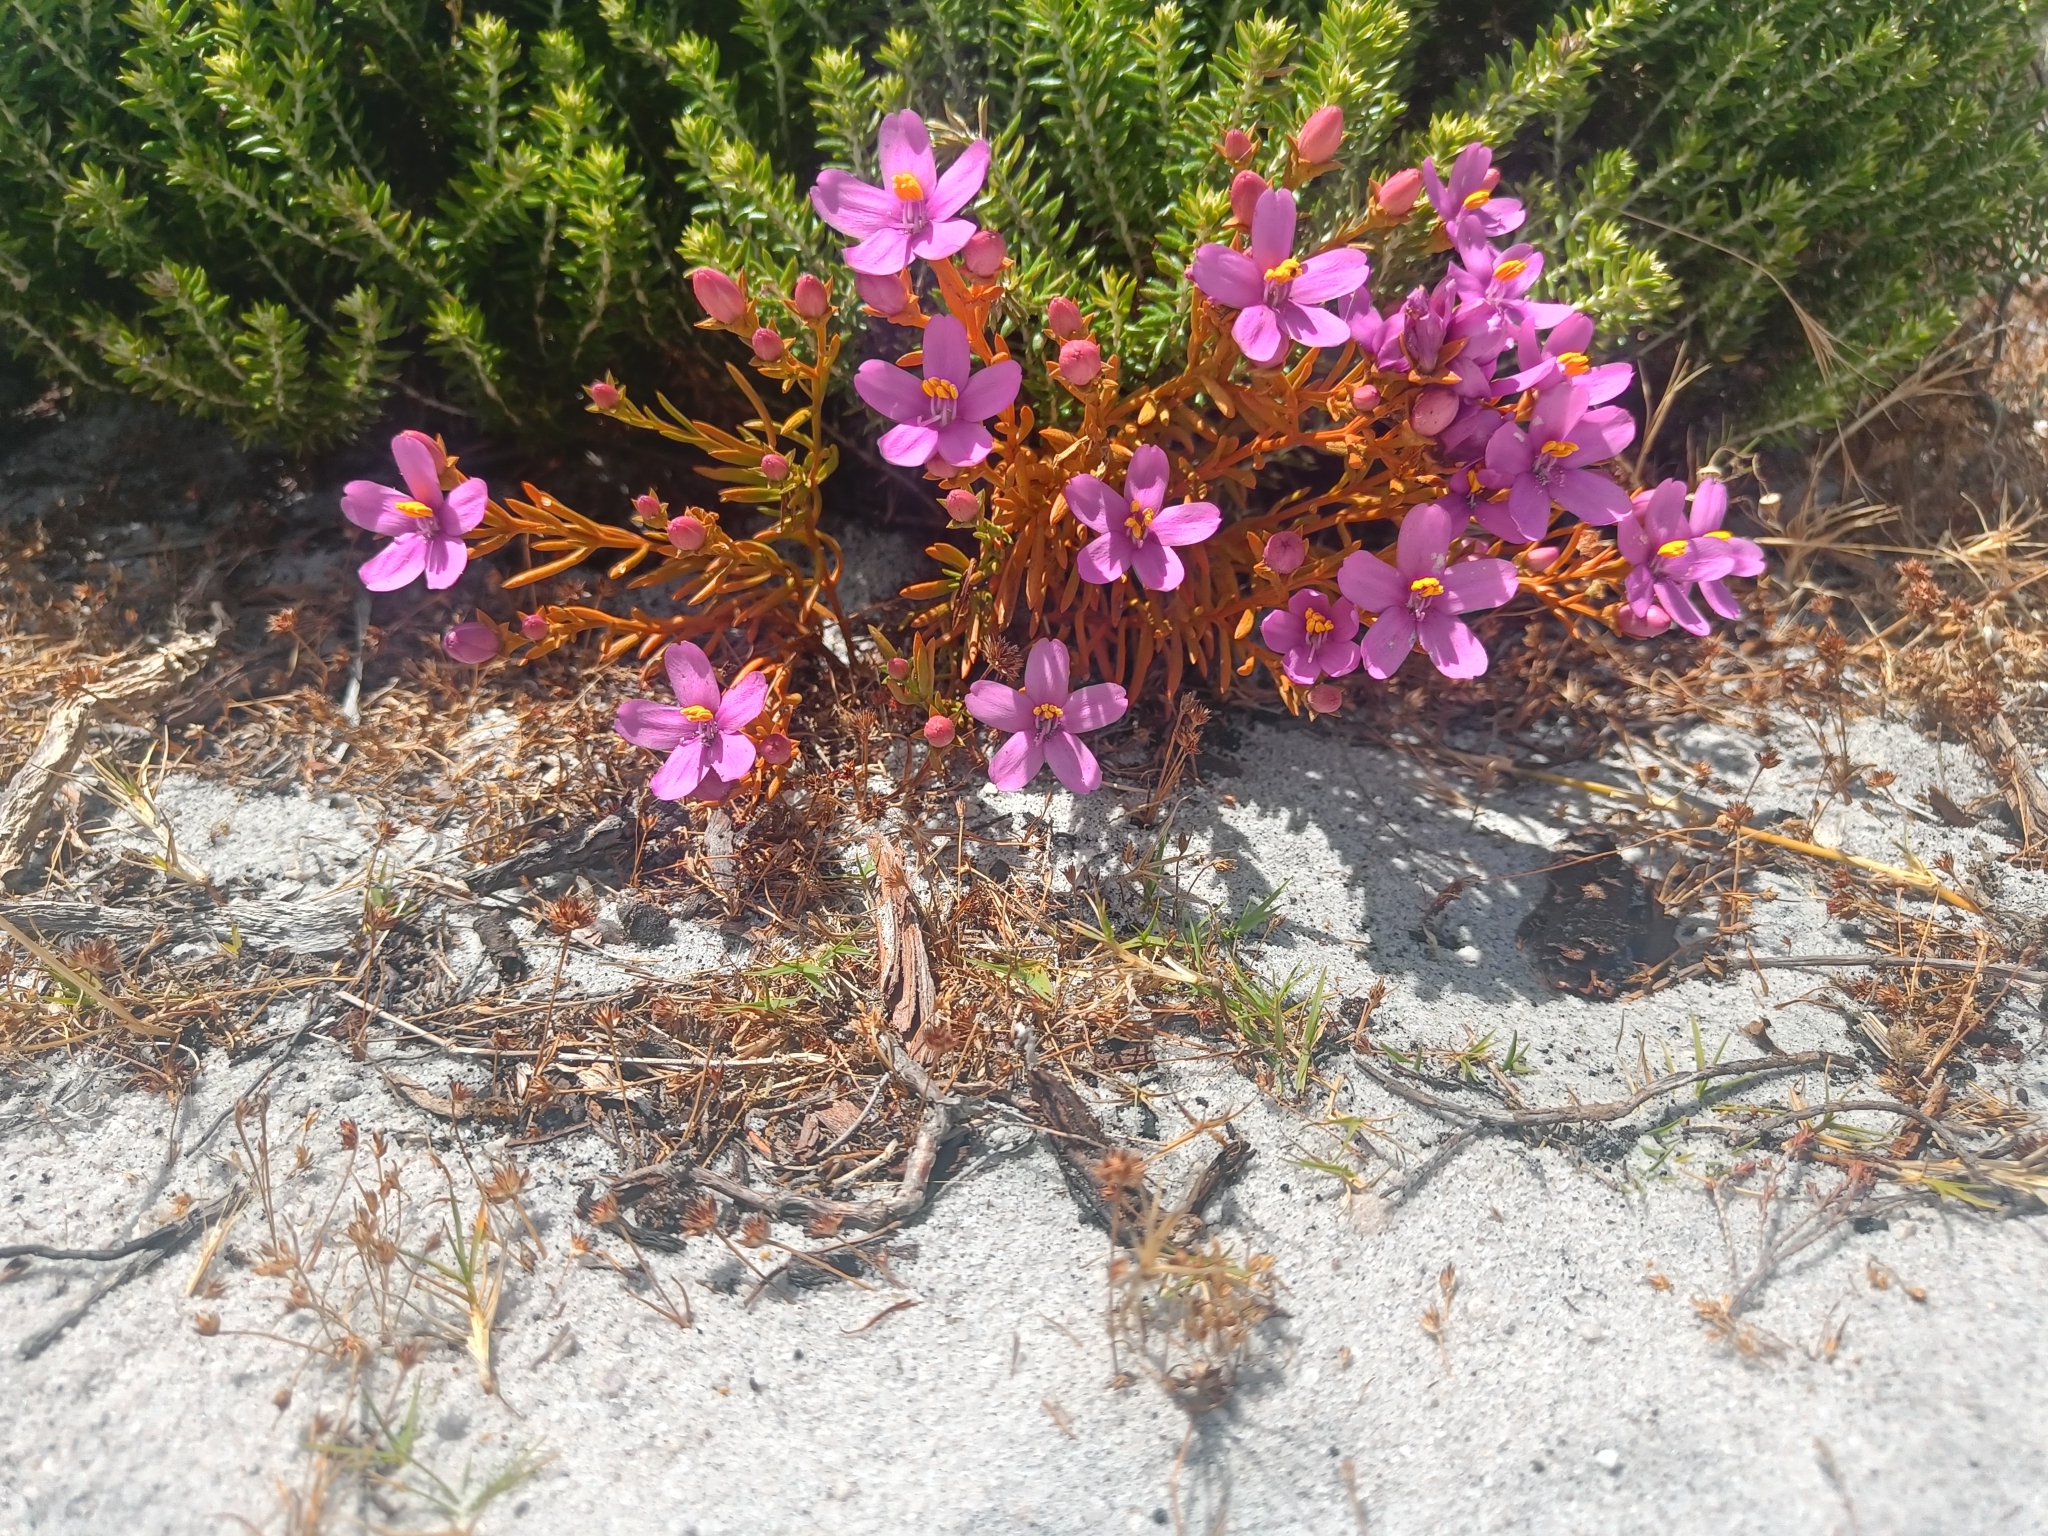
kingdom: Plantae
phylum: Tracheophyta
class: Magnoliopsida
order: Gentianales
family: Gentianaceae
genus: Chironia
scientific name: Chironia linoides
